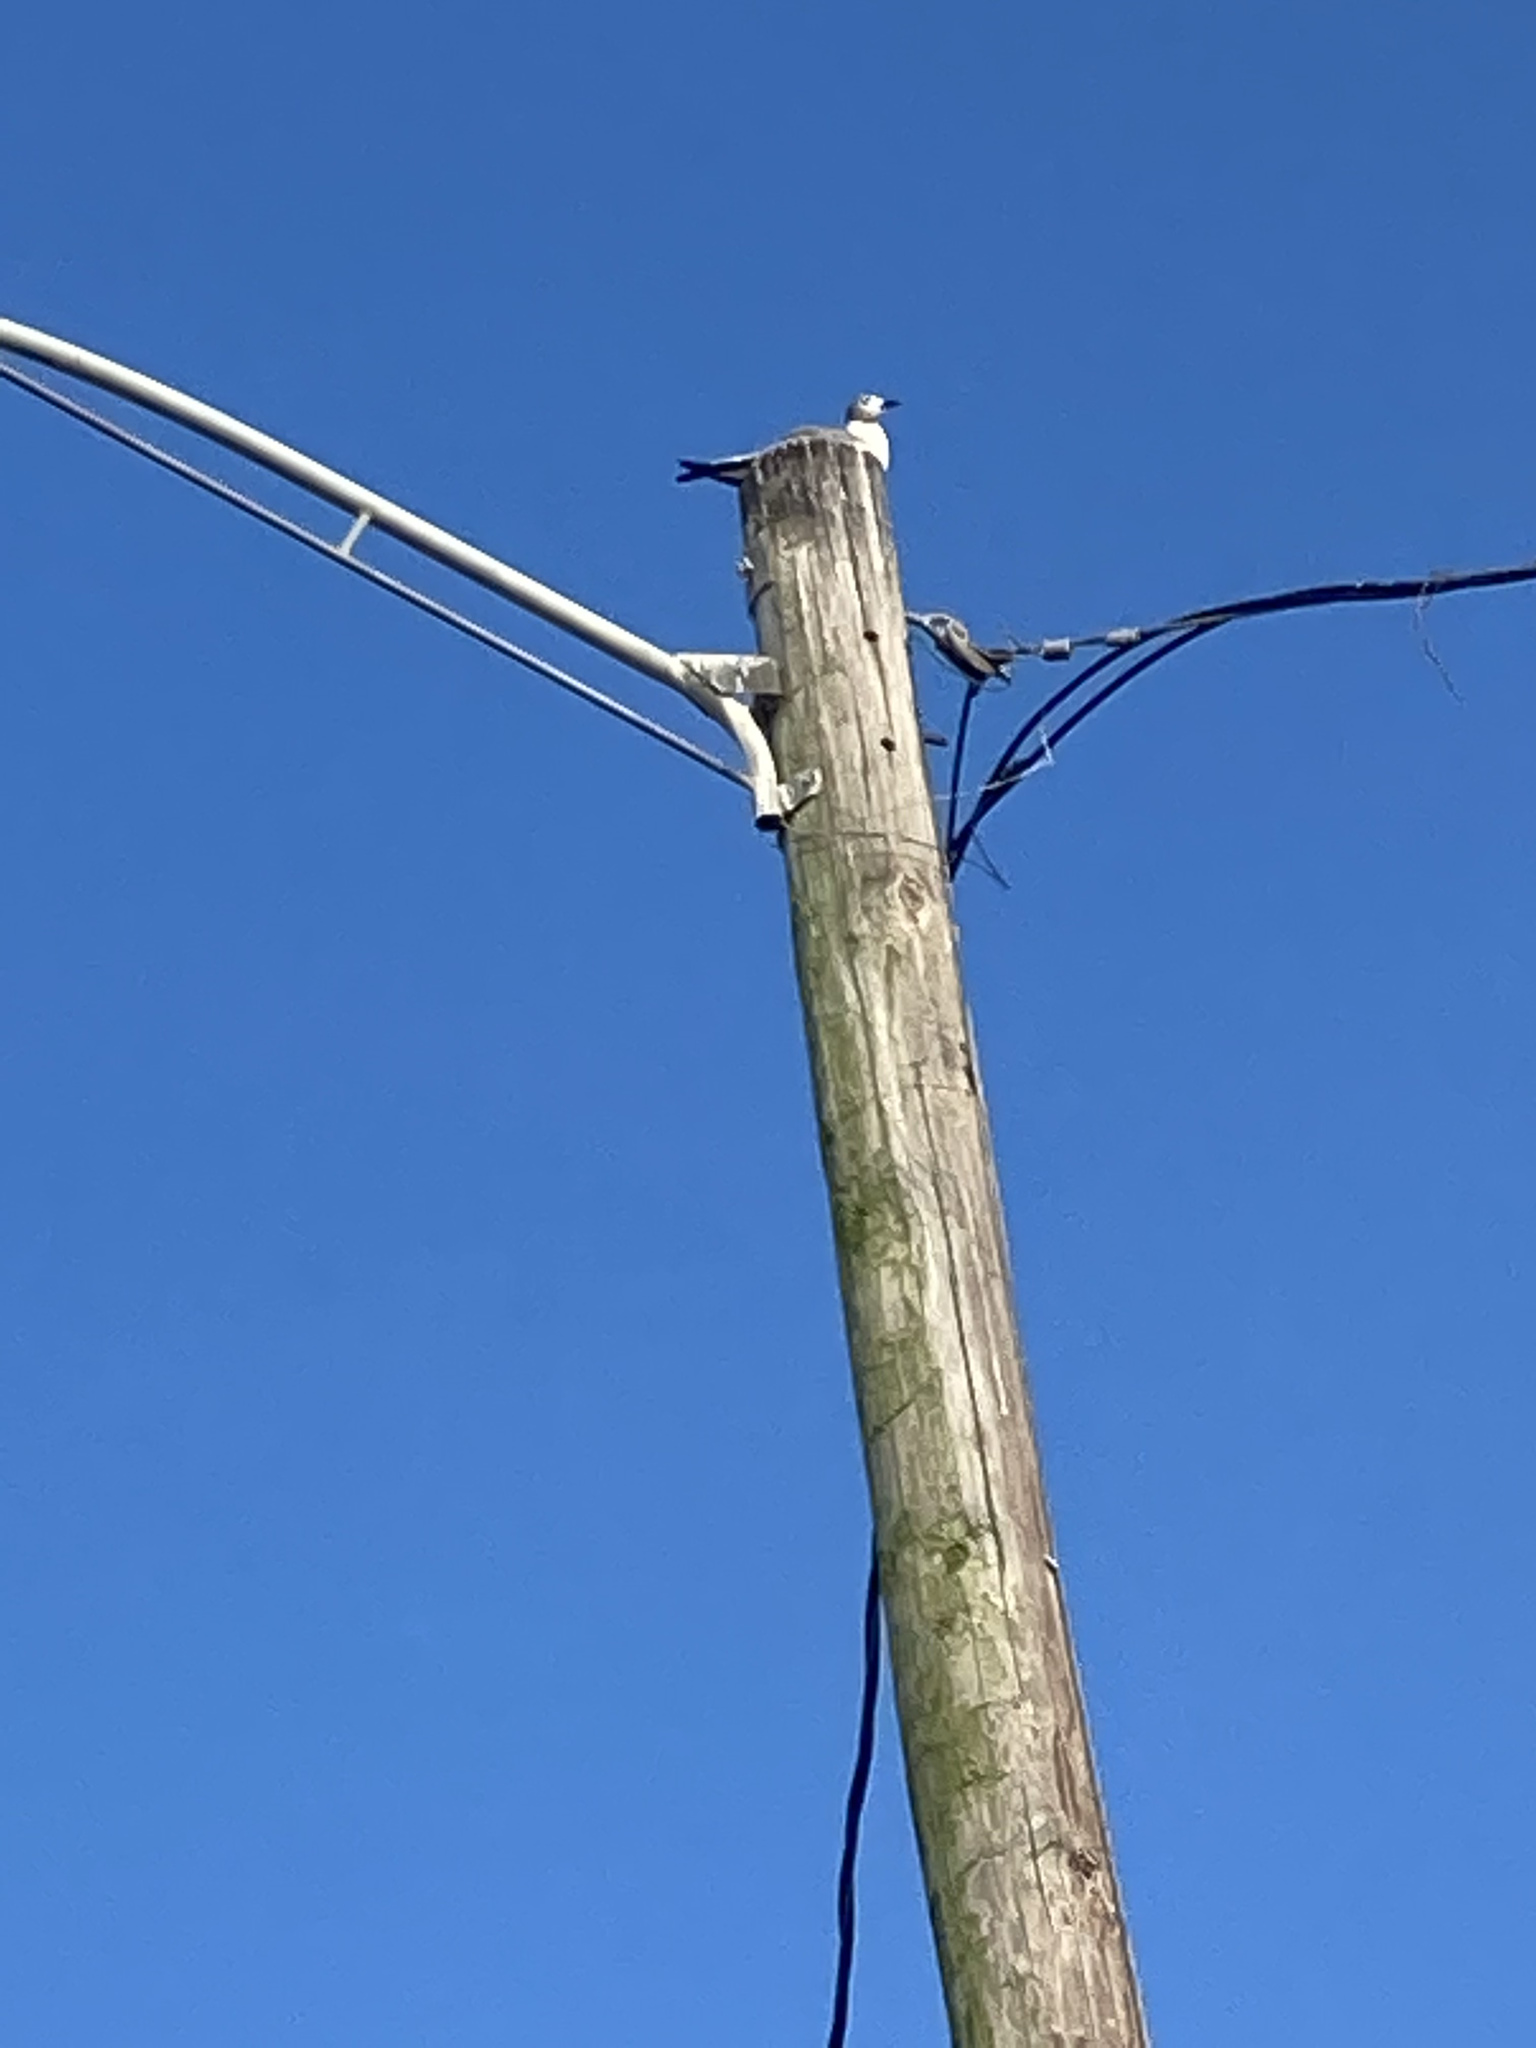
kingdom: Animalia
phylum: Chordata
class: Aves
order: Charadriiformes
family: Laridae
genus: Leucophaeus
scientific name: Leucophaeus atricilla
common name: Laughing gull
